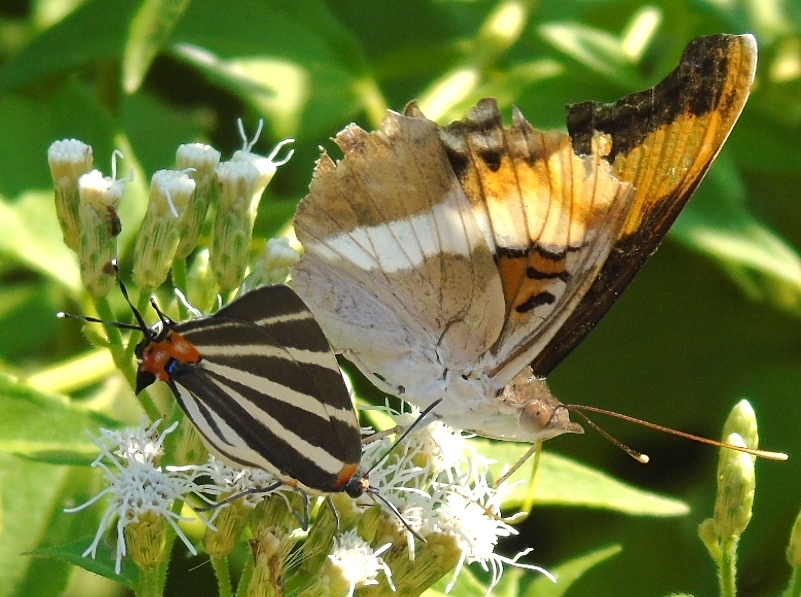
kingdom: Animalia
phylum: Arthropoda
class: Insecta
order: Lepidoptera
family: Lycaenidae
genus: Thecla
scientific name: Thecla bathildis
